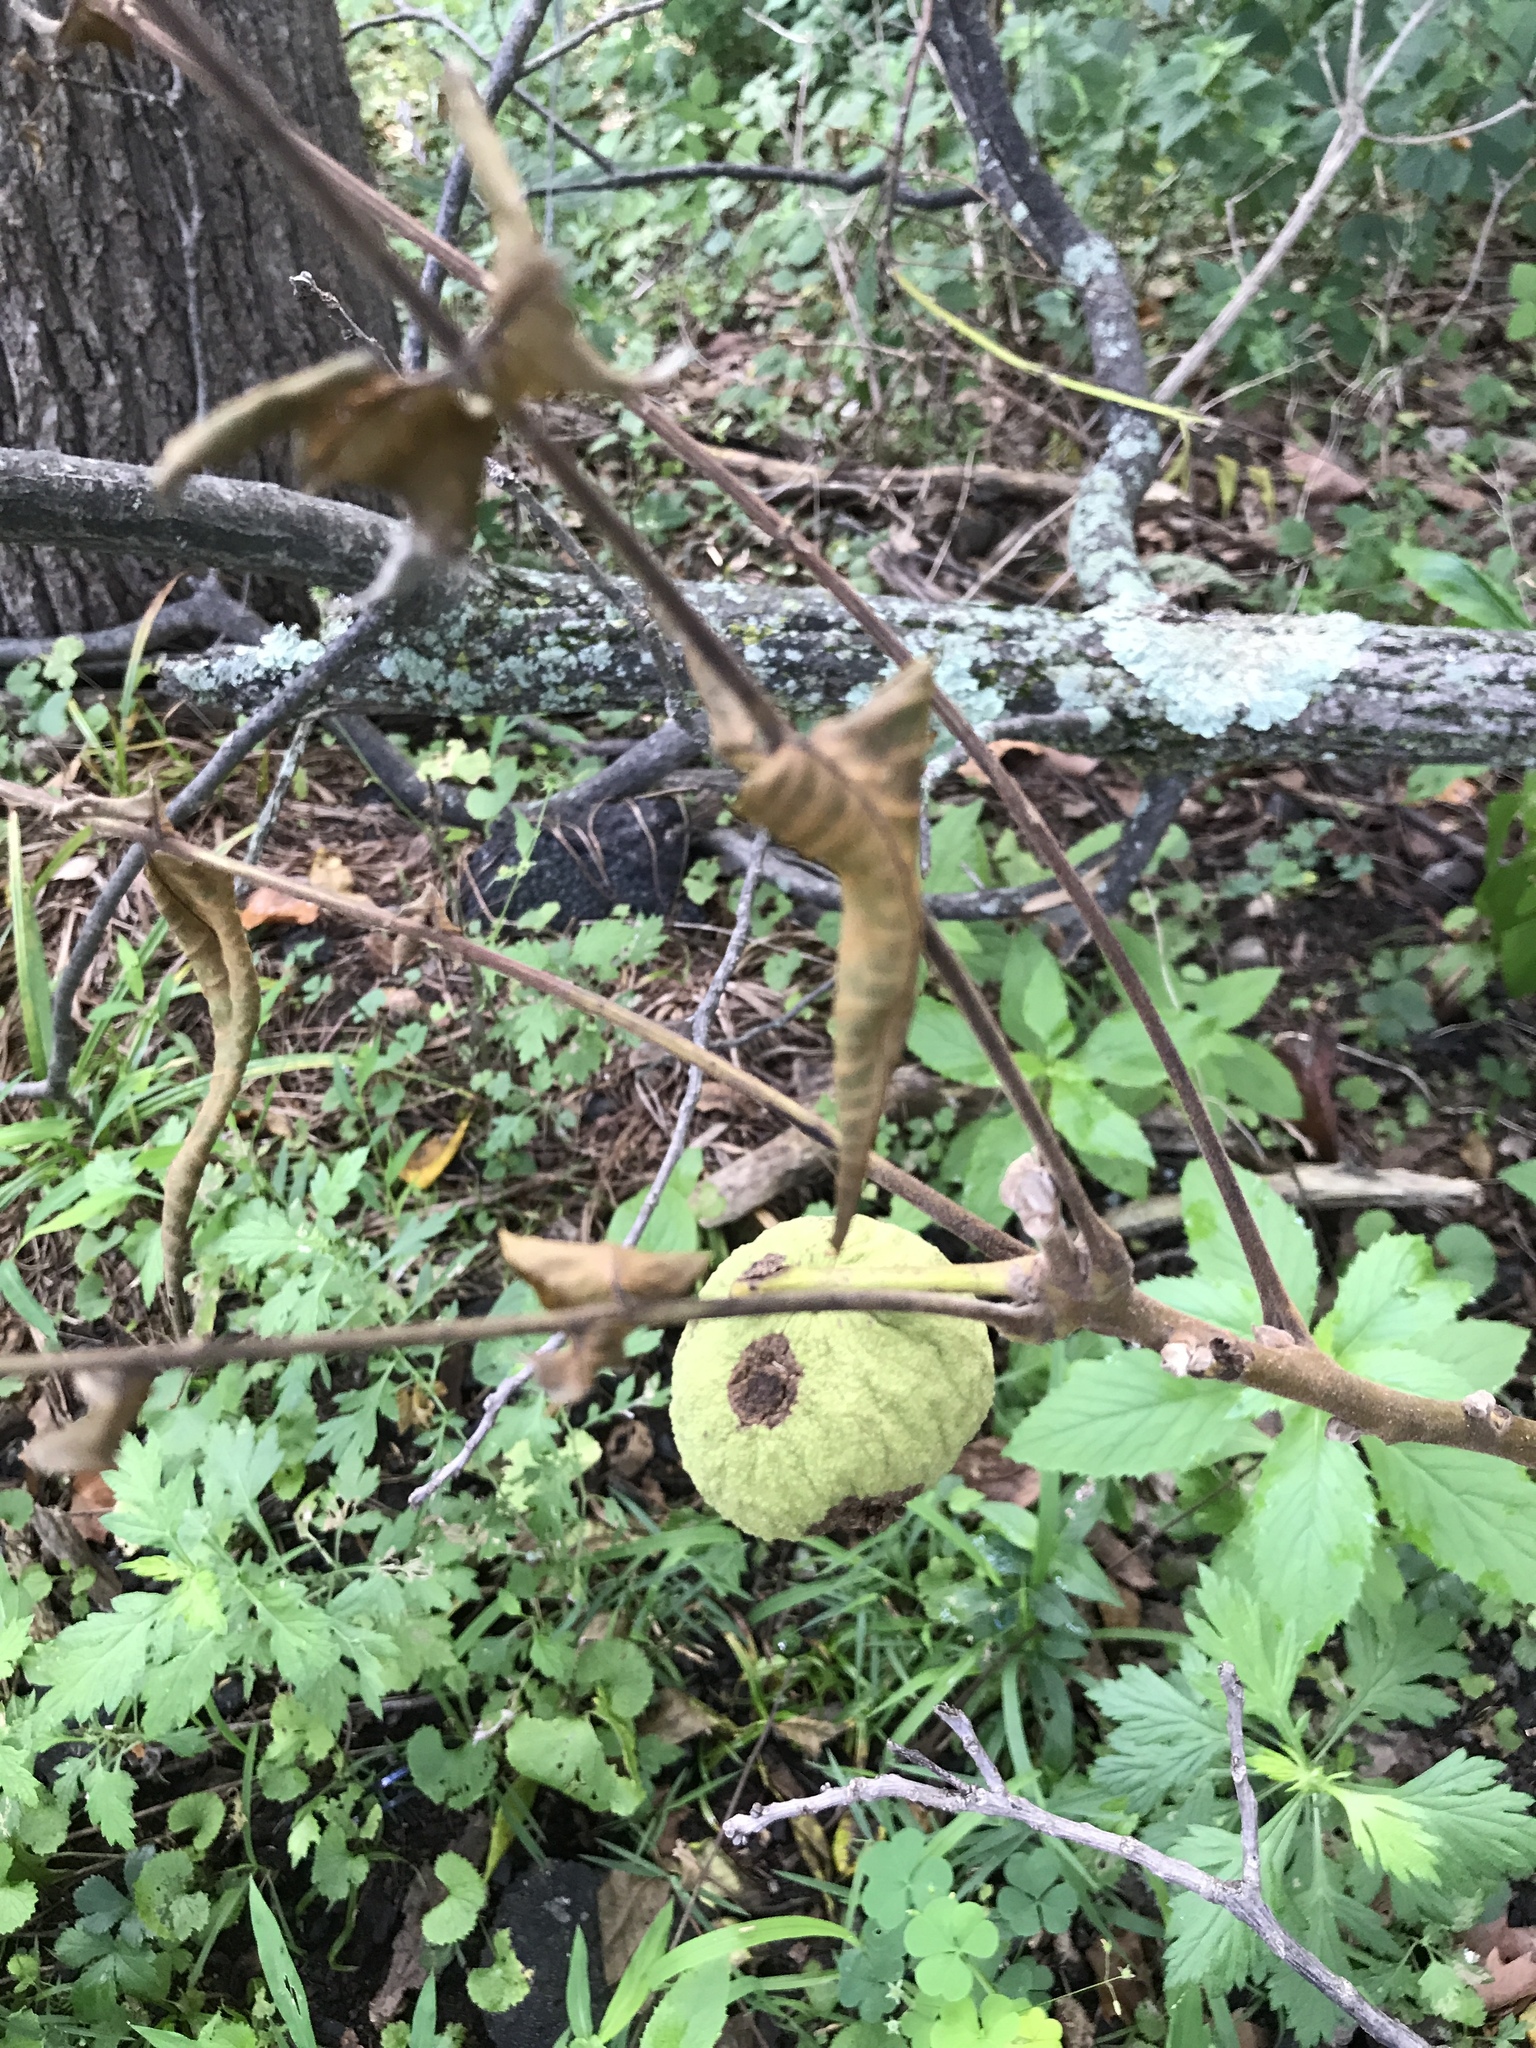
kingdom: Plantae
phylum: Tracheophyta
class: Magnoliopsida
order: Fagales
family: Juglandaceae
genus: Juglans
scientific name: Juglans nigra
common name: Black walnut
